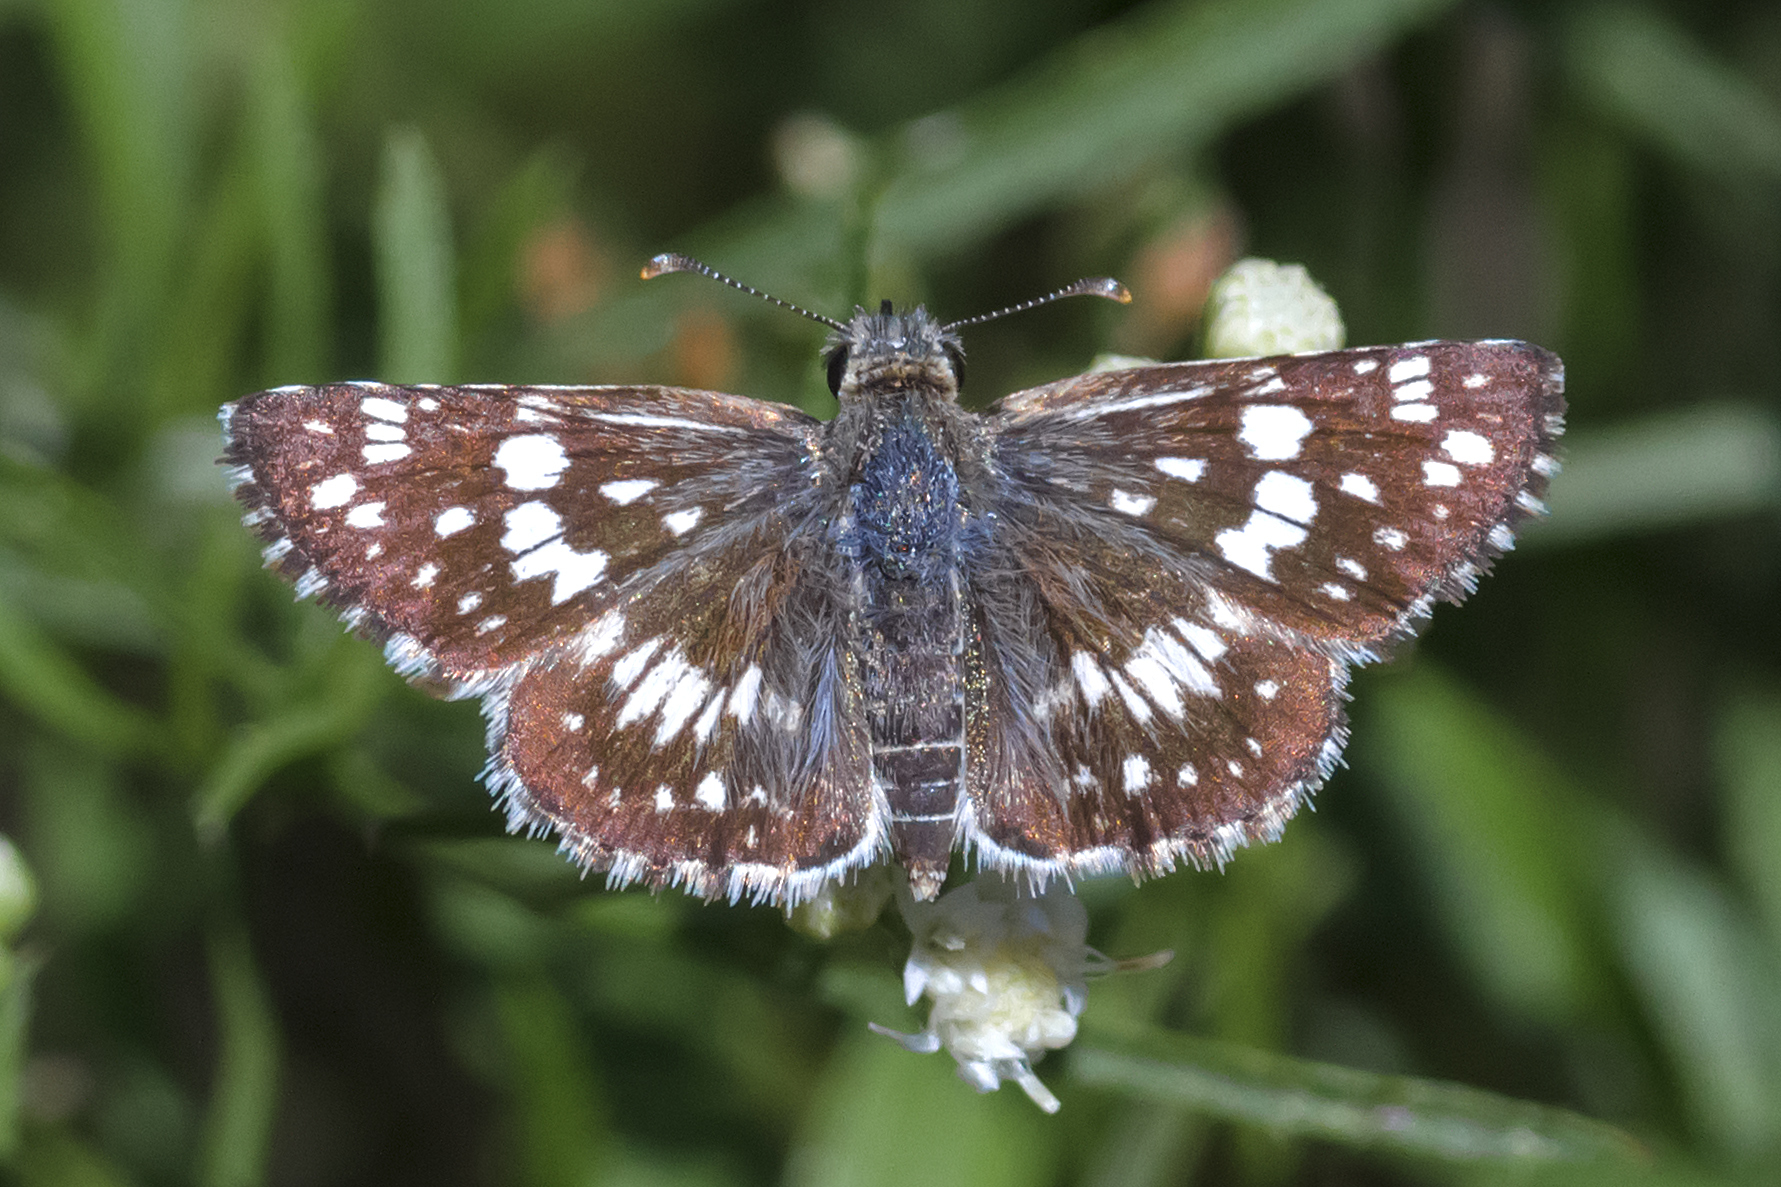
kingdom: Animalia
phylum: Arthropoda
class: Insecta
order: Lepidoptera
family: Hesperiidae
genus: Burnsius
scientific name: Burnsius orcynoides
